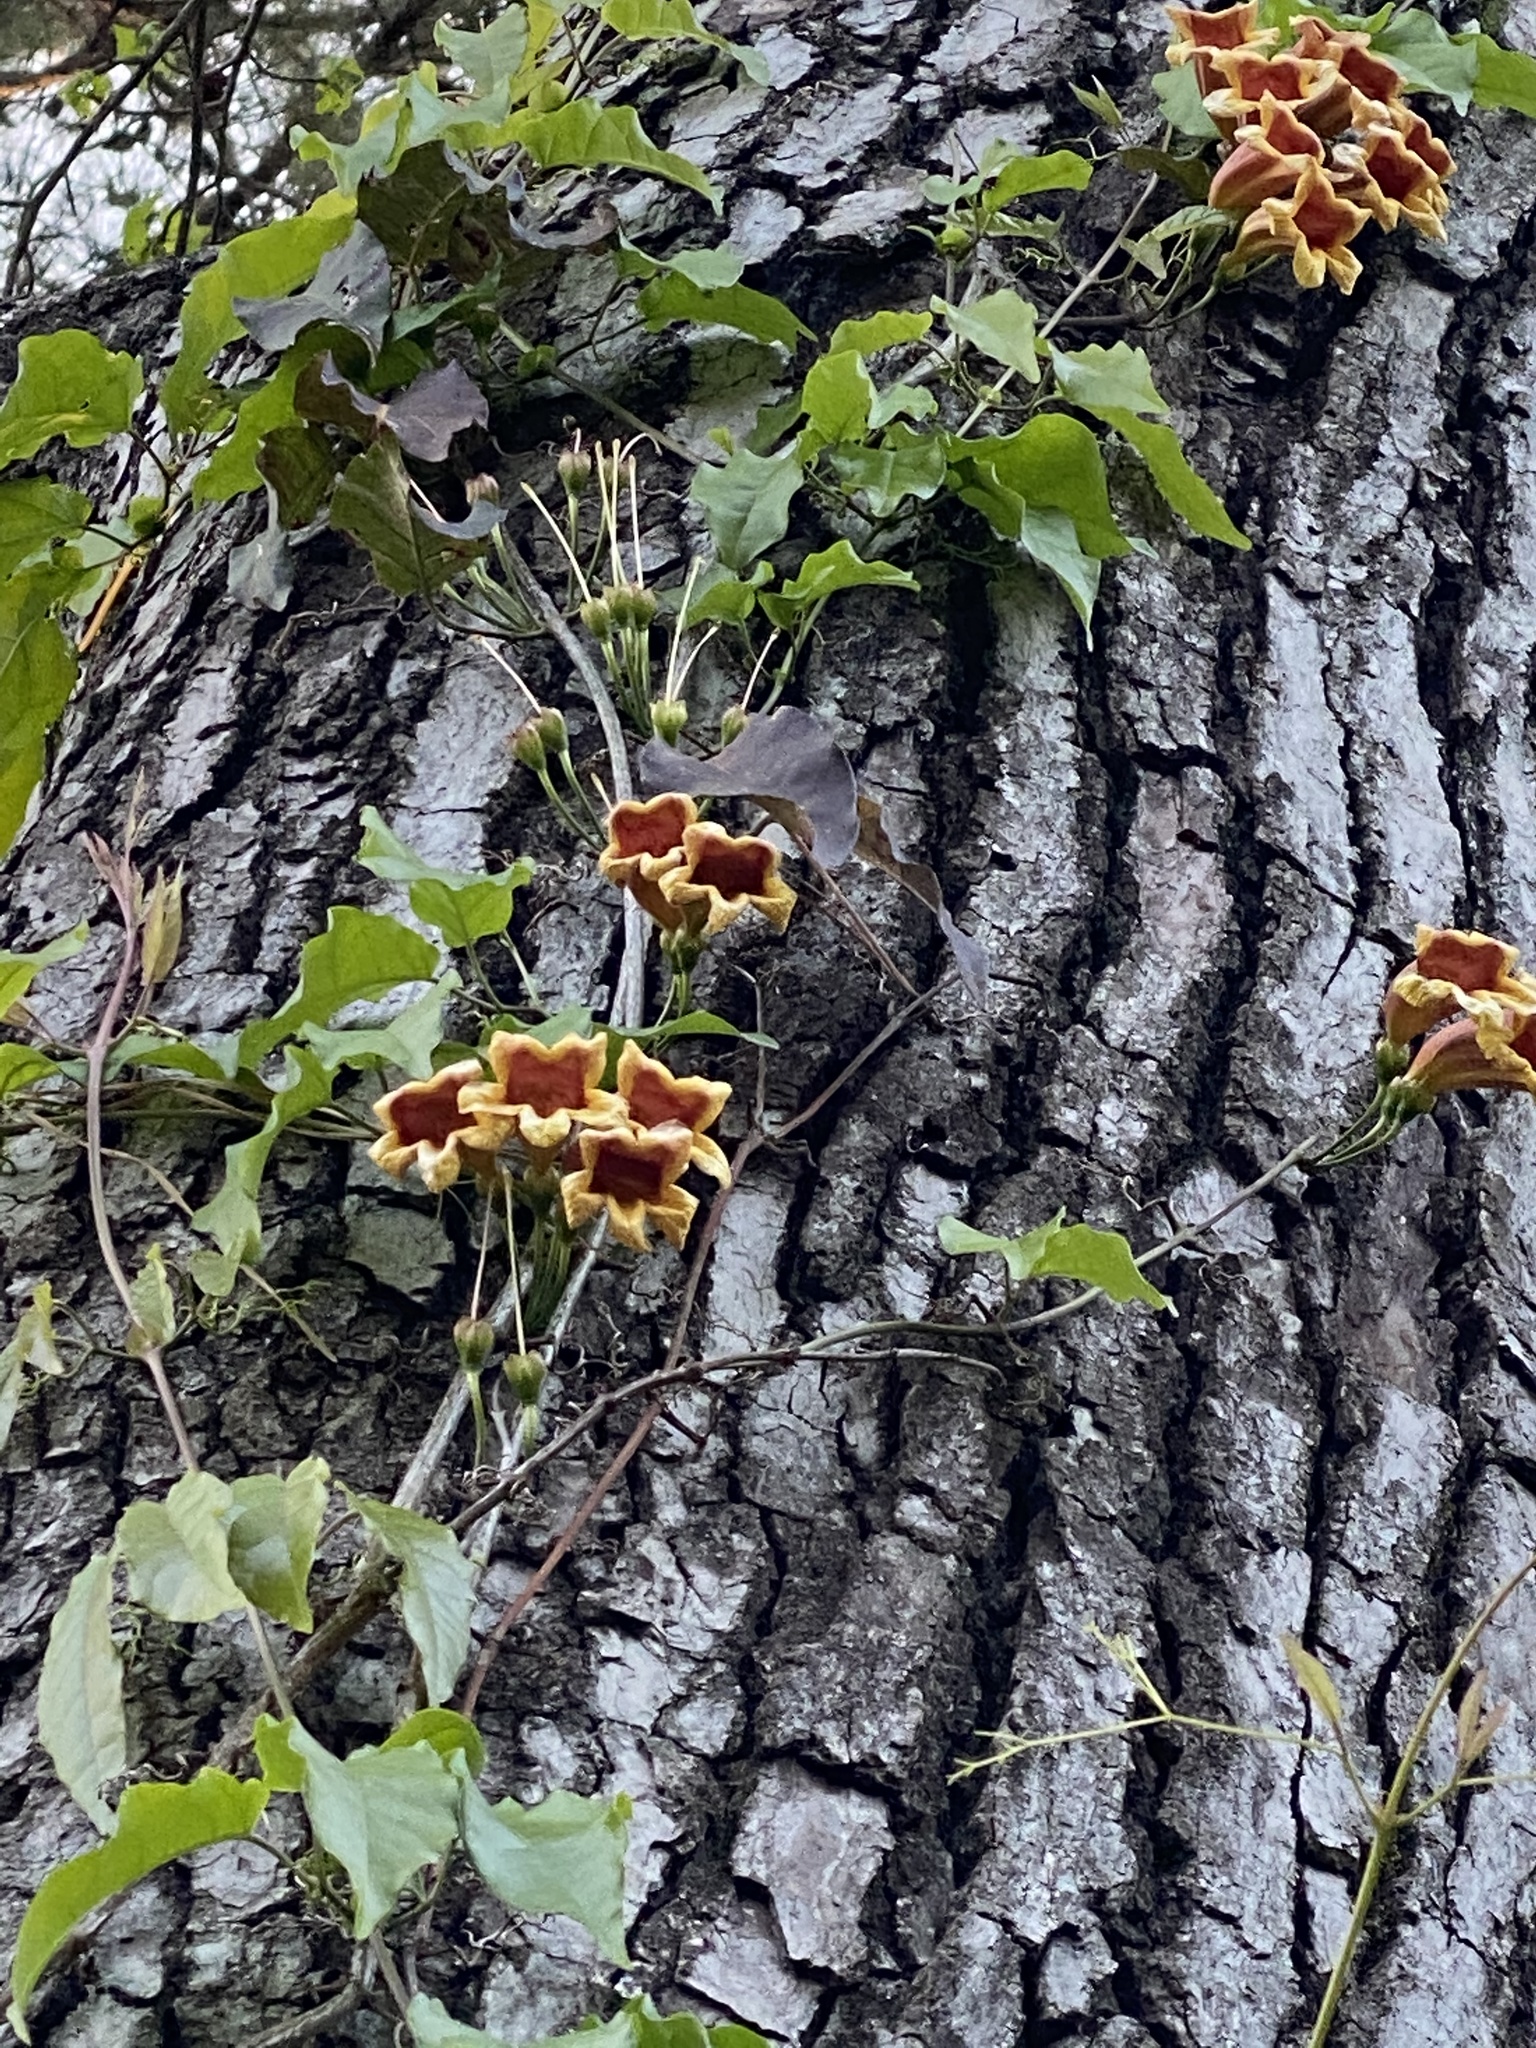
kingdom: Plantae
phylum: Tracheophyta
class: Magnoliopsida
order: Lamiales
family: Bignoniaceae
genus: Bignonia
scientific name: Bignonia capreolata
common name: Crossvine
